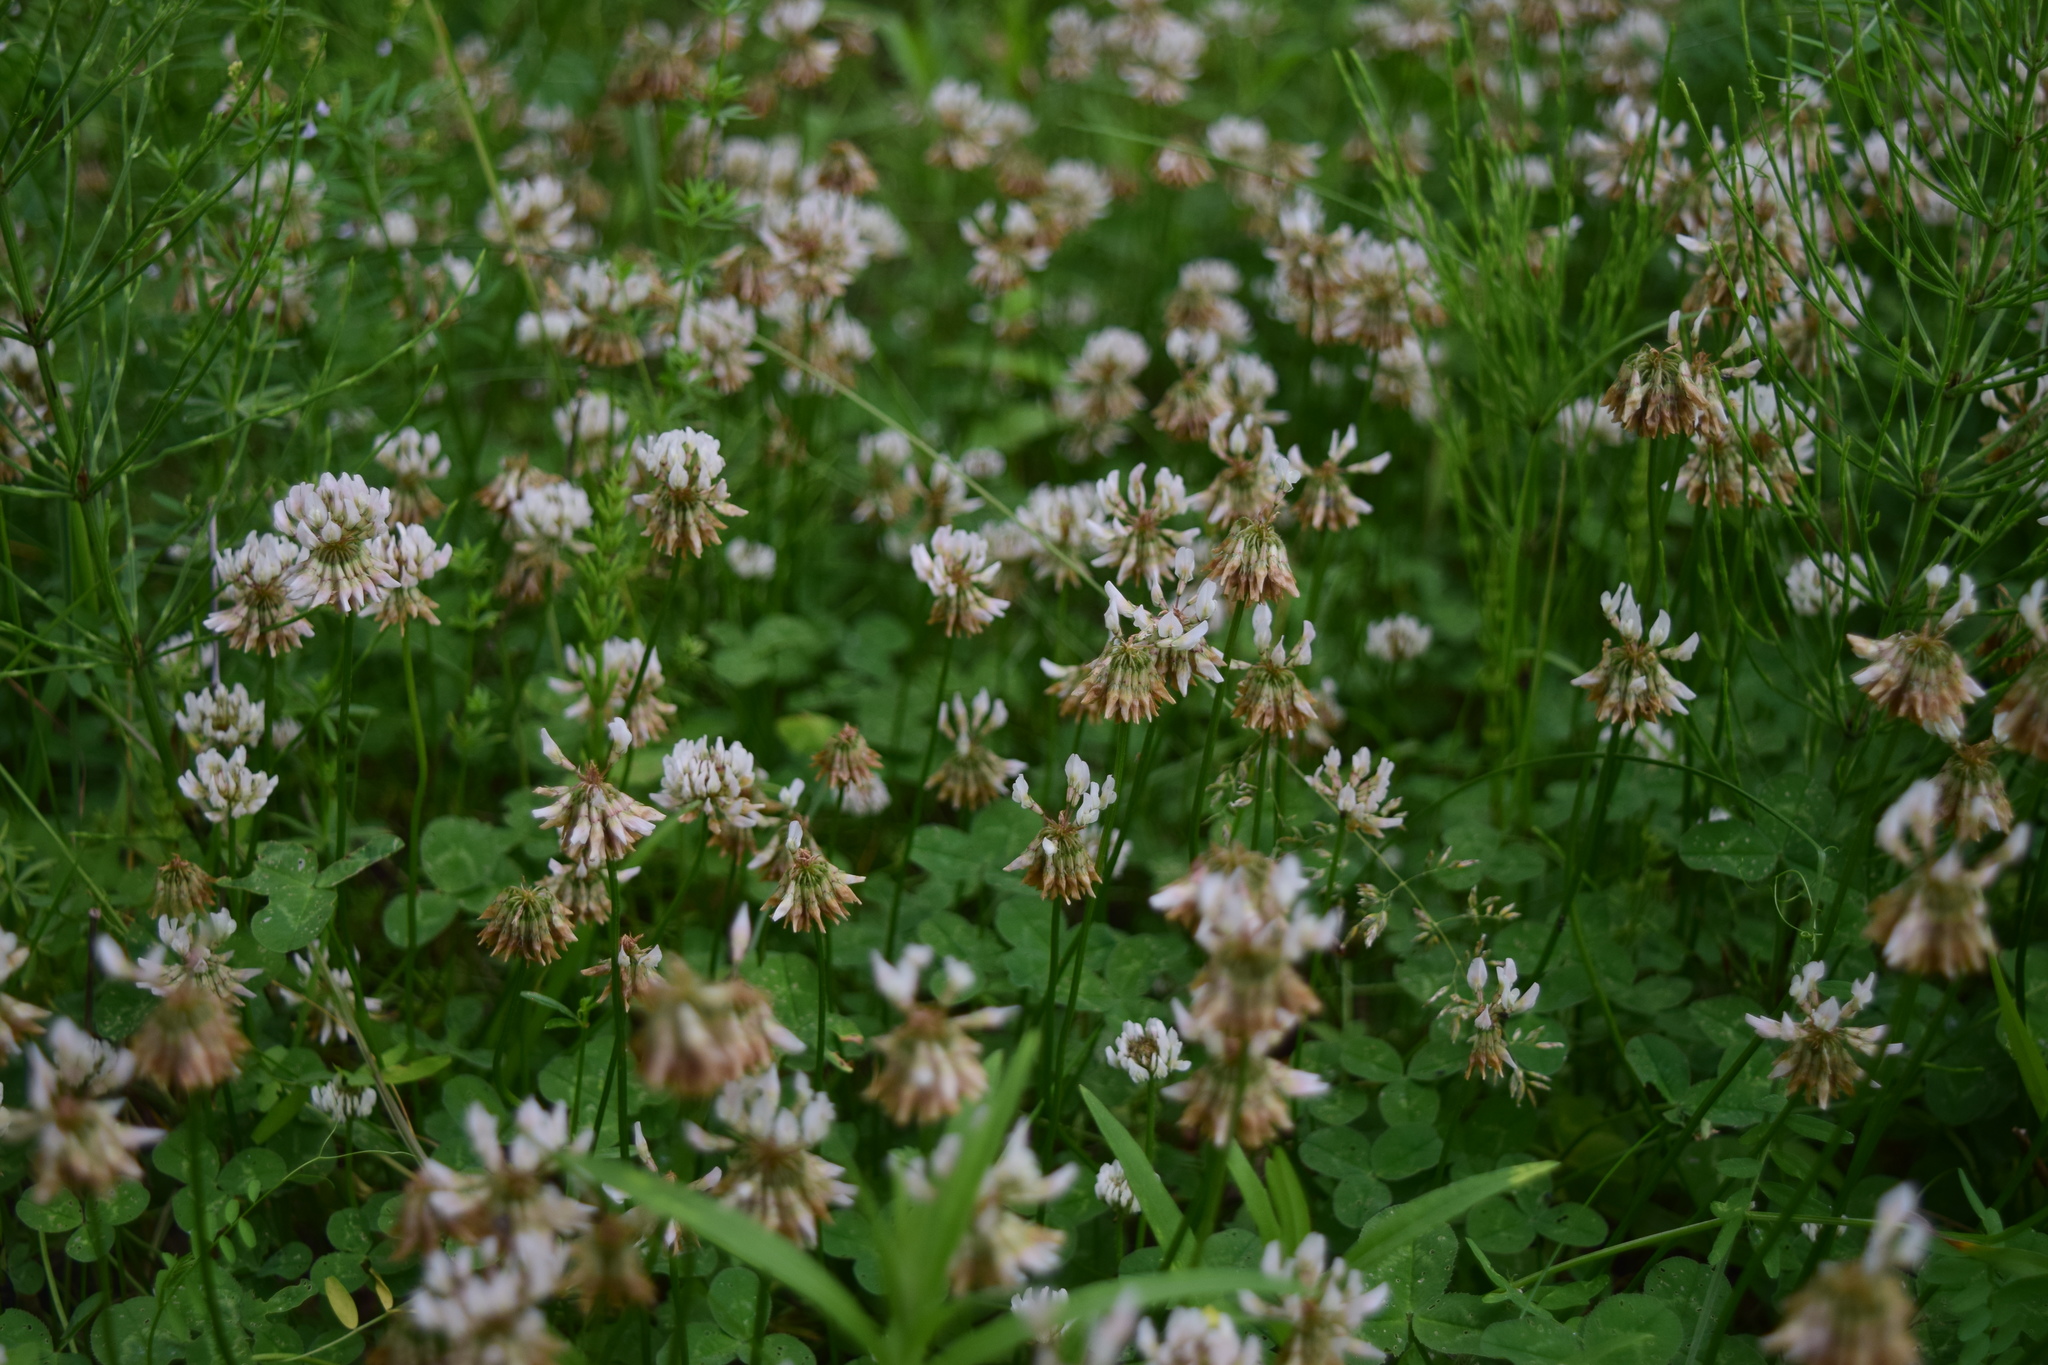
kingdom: Plantae
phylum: Tracheophyta
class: Magnoliopsida
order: Fabales
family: Fabaceae
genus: Trifolium
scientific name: Trifolium repens
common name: White clover
